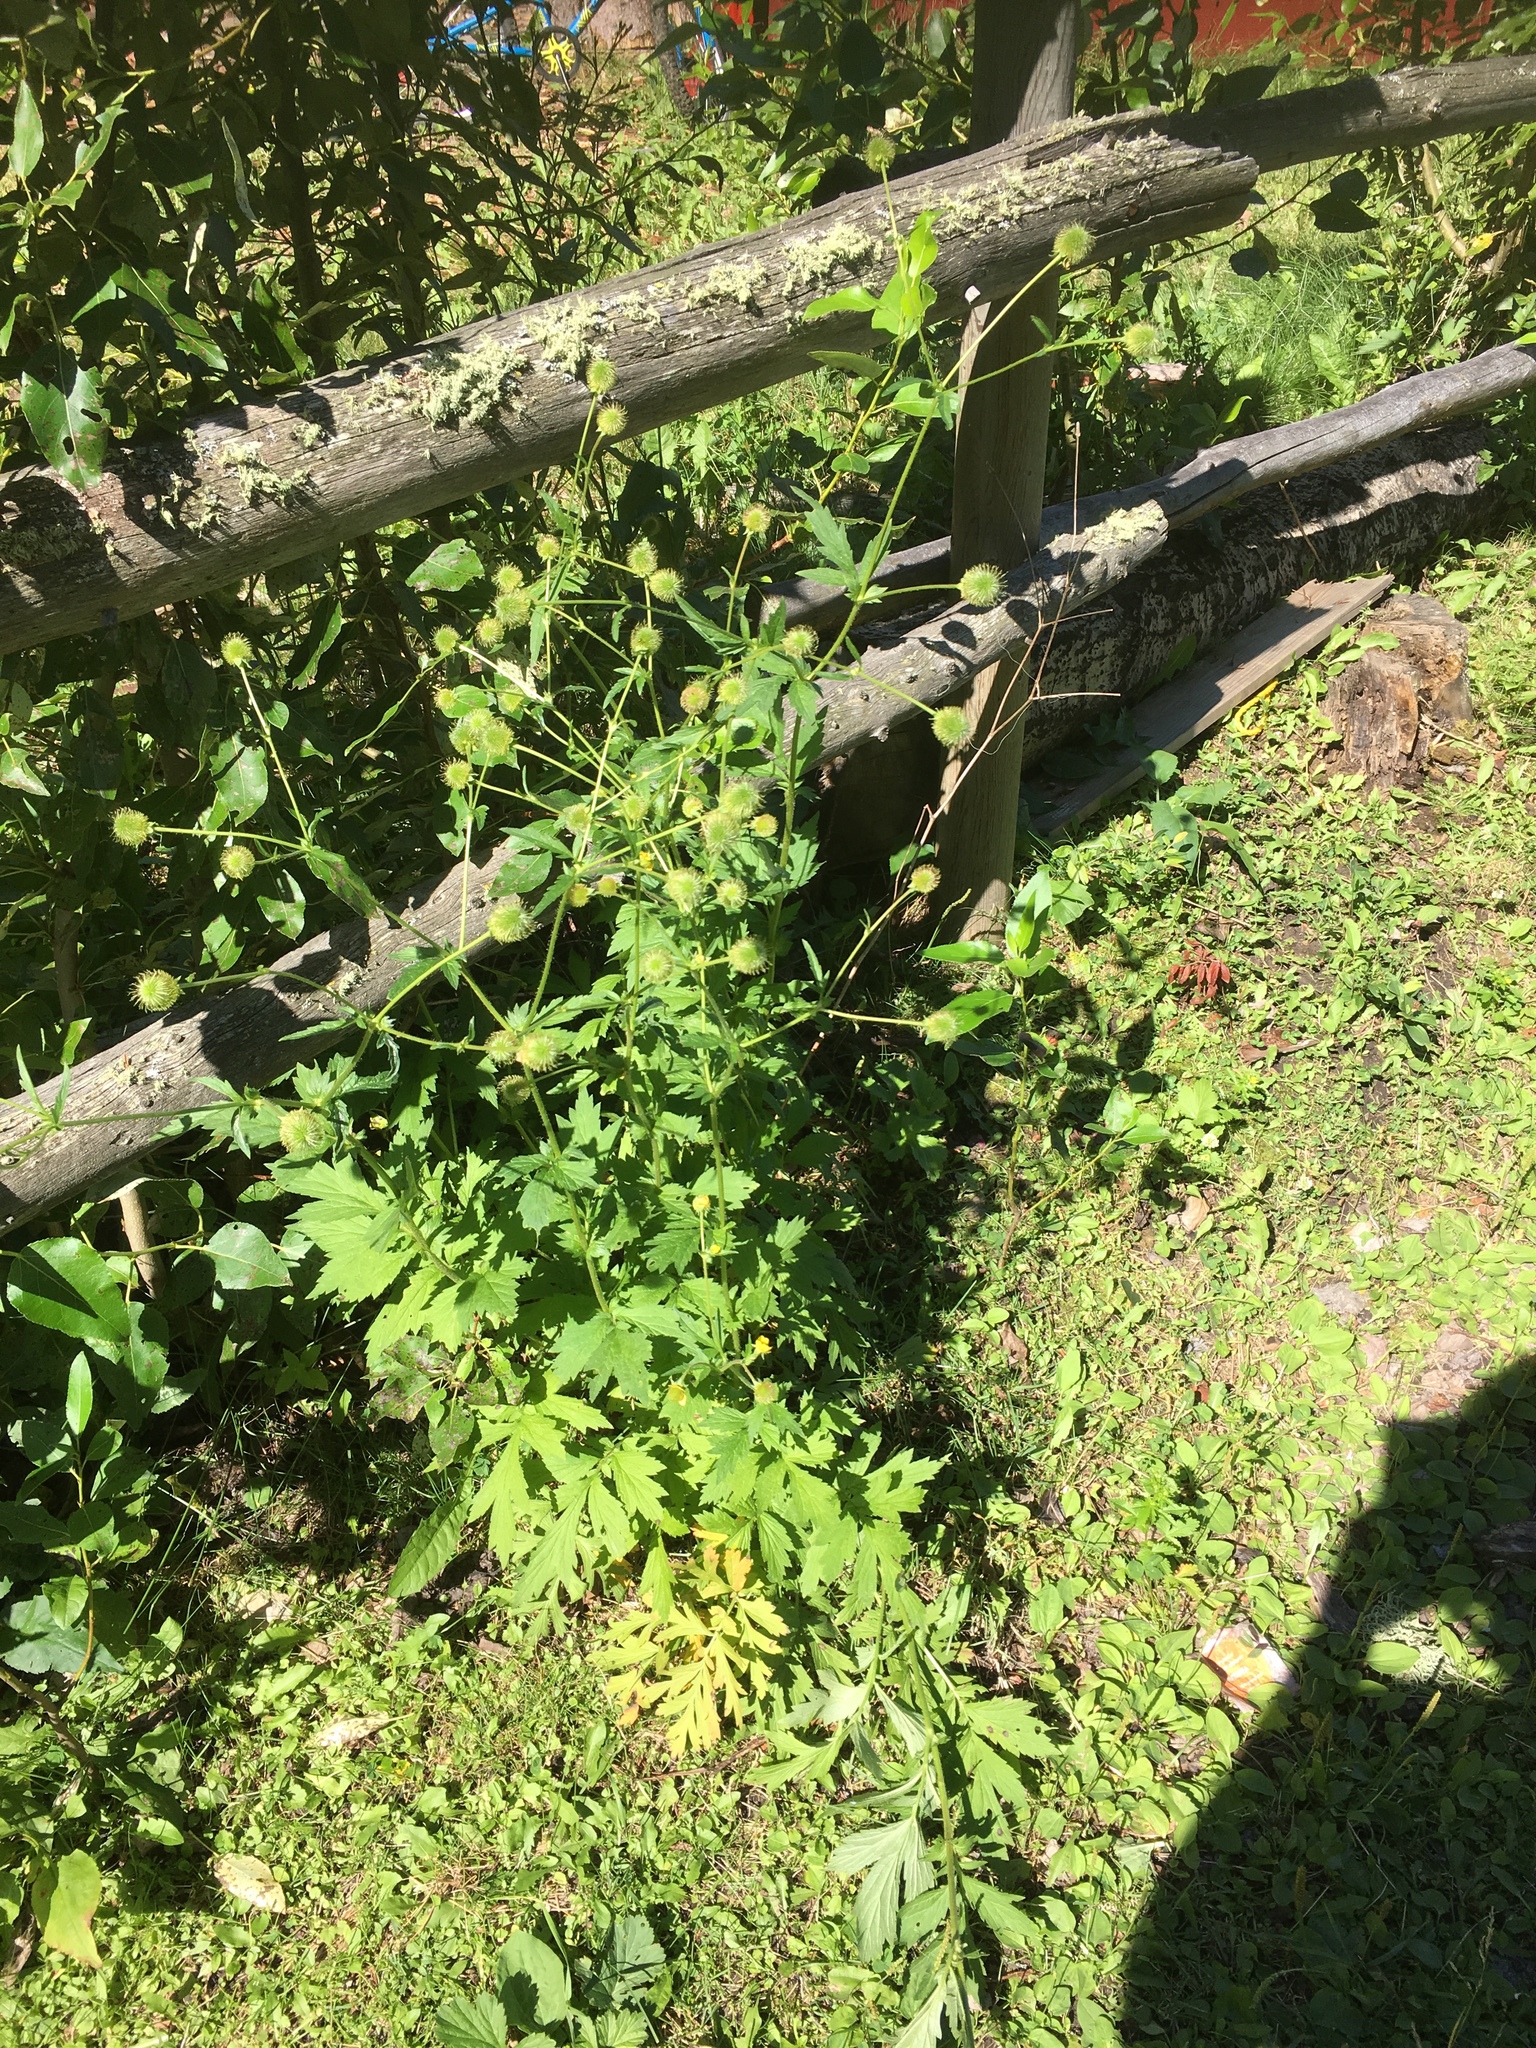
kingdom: Plantae
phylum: Tracheophyta
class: Magnoliopsida
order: Rosales
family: Rosaceae
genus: Geum
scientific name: Geum aleppicum
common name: Yellow avens
